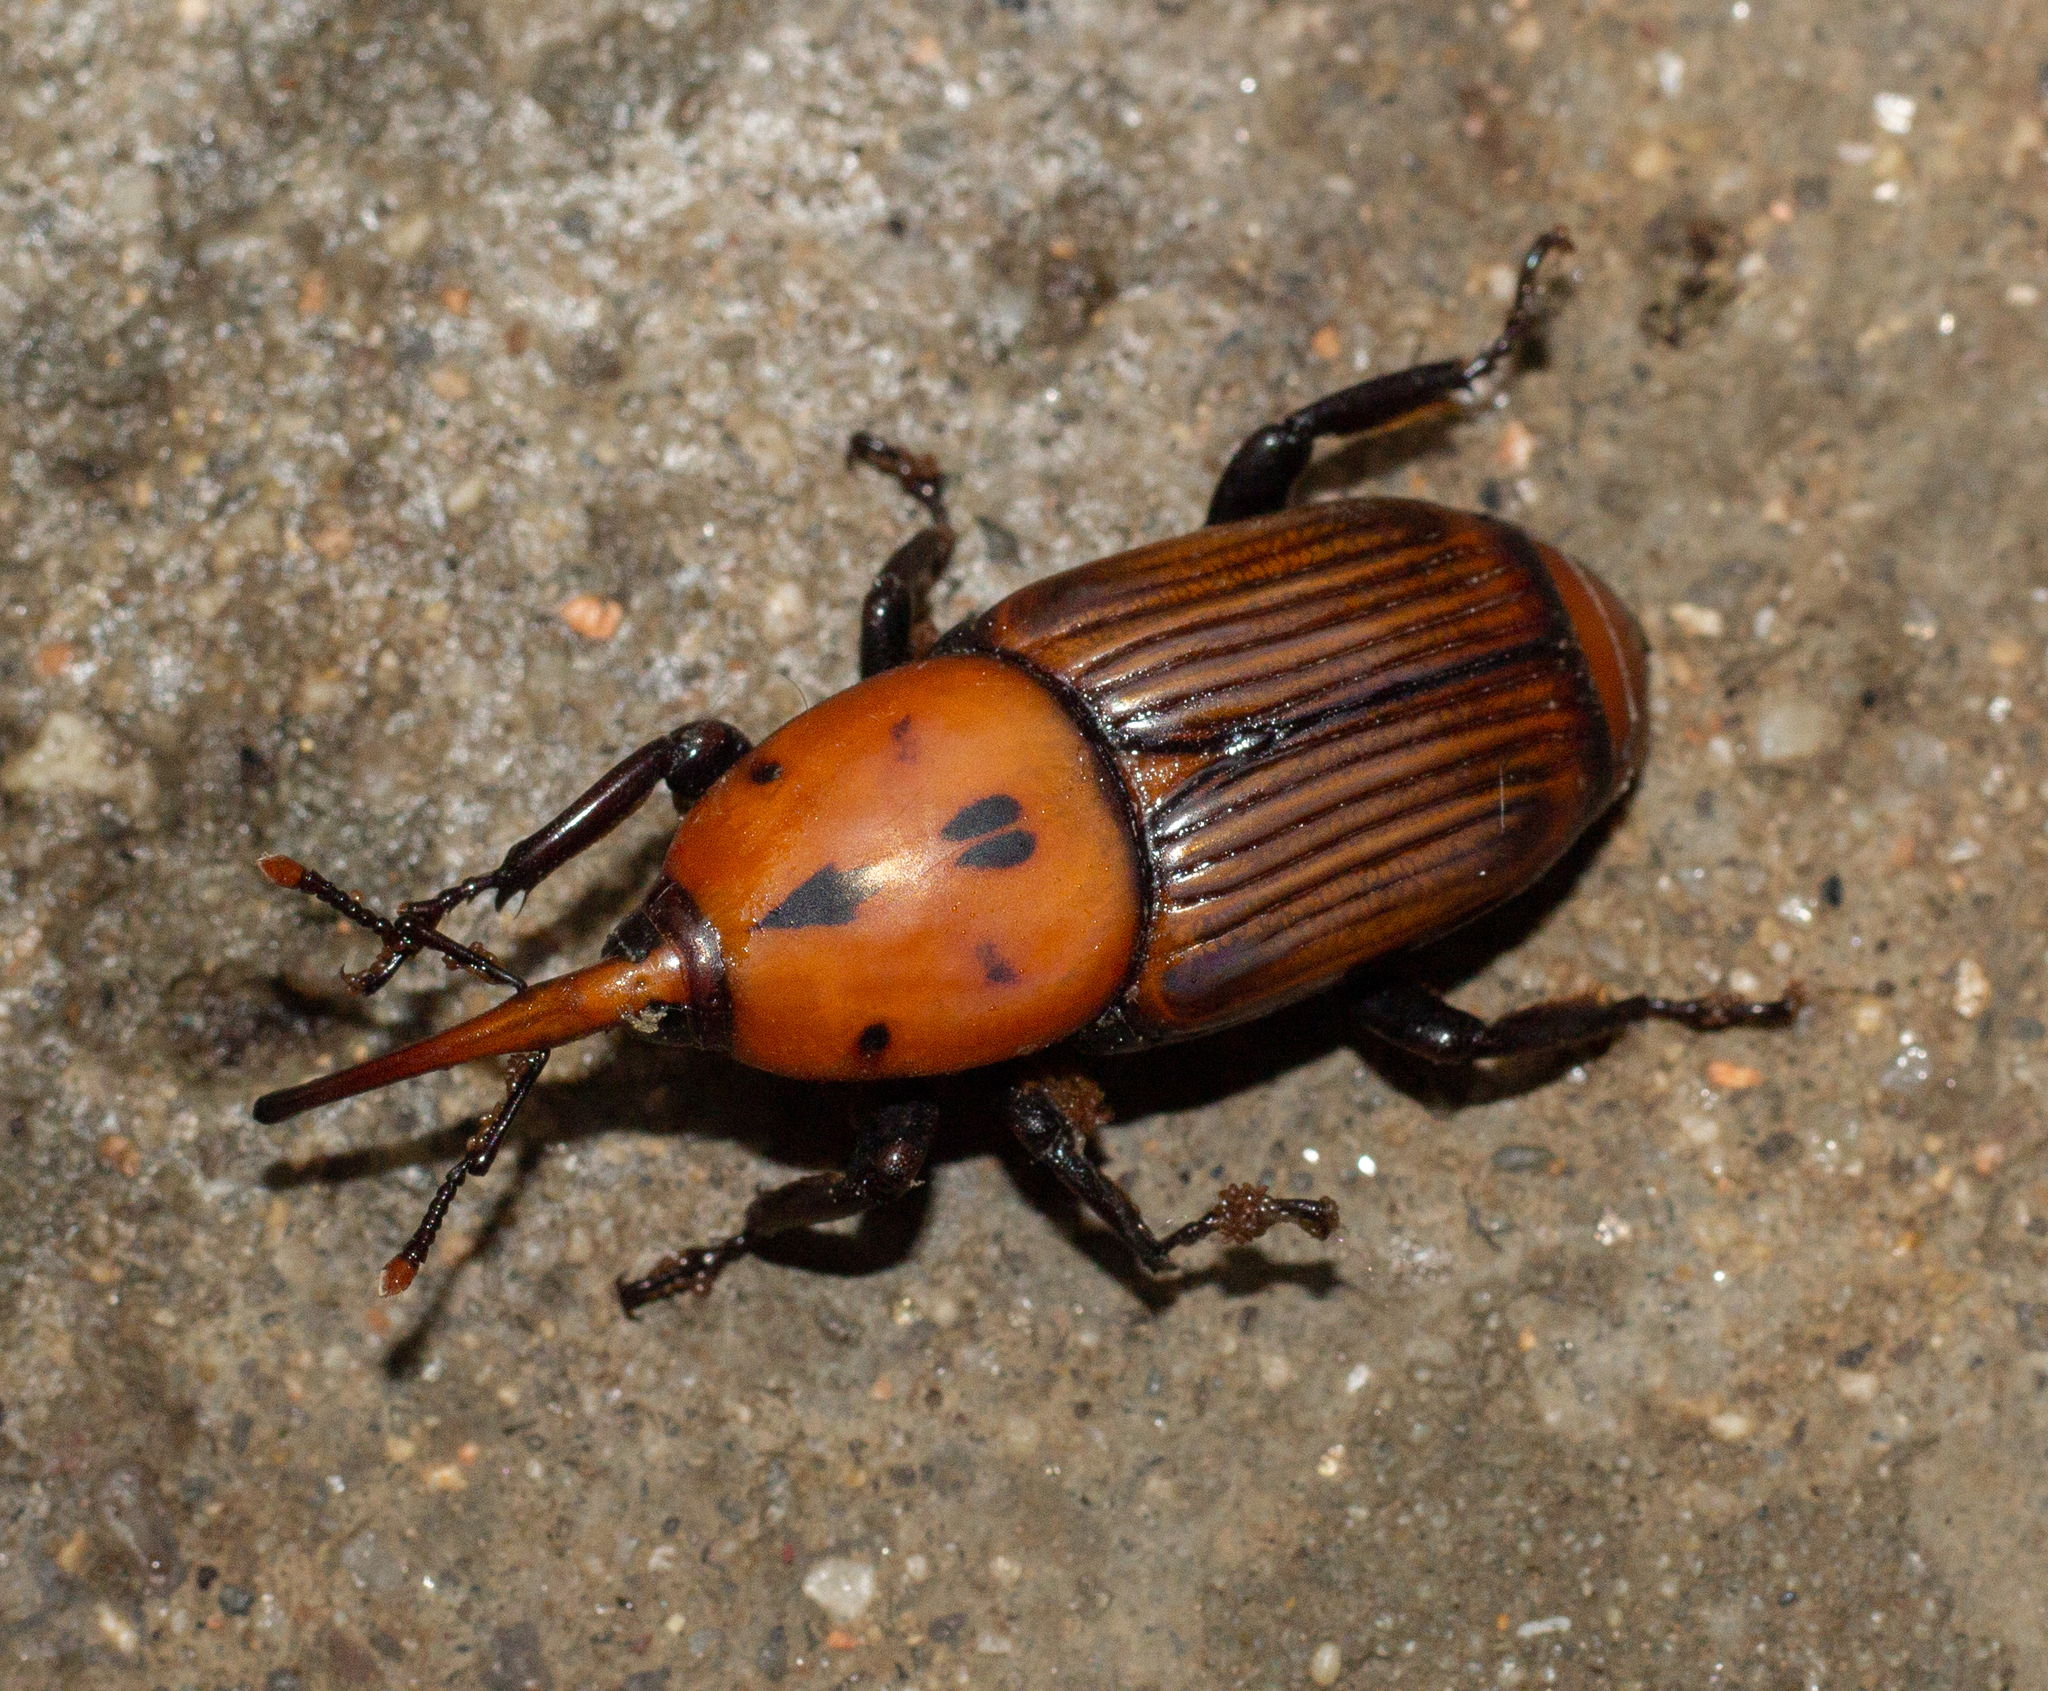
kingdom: Animalia
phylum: Arthropoda
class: Insecta
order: Coleoptera
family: Dryophthoridae
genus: Rhynchophorus
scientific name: Rhynchophorus ferrugineus
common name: Red palm weevil
